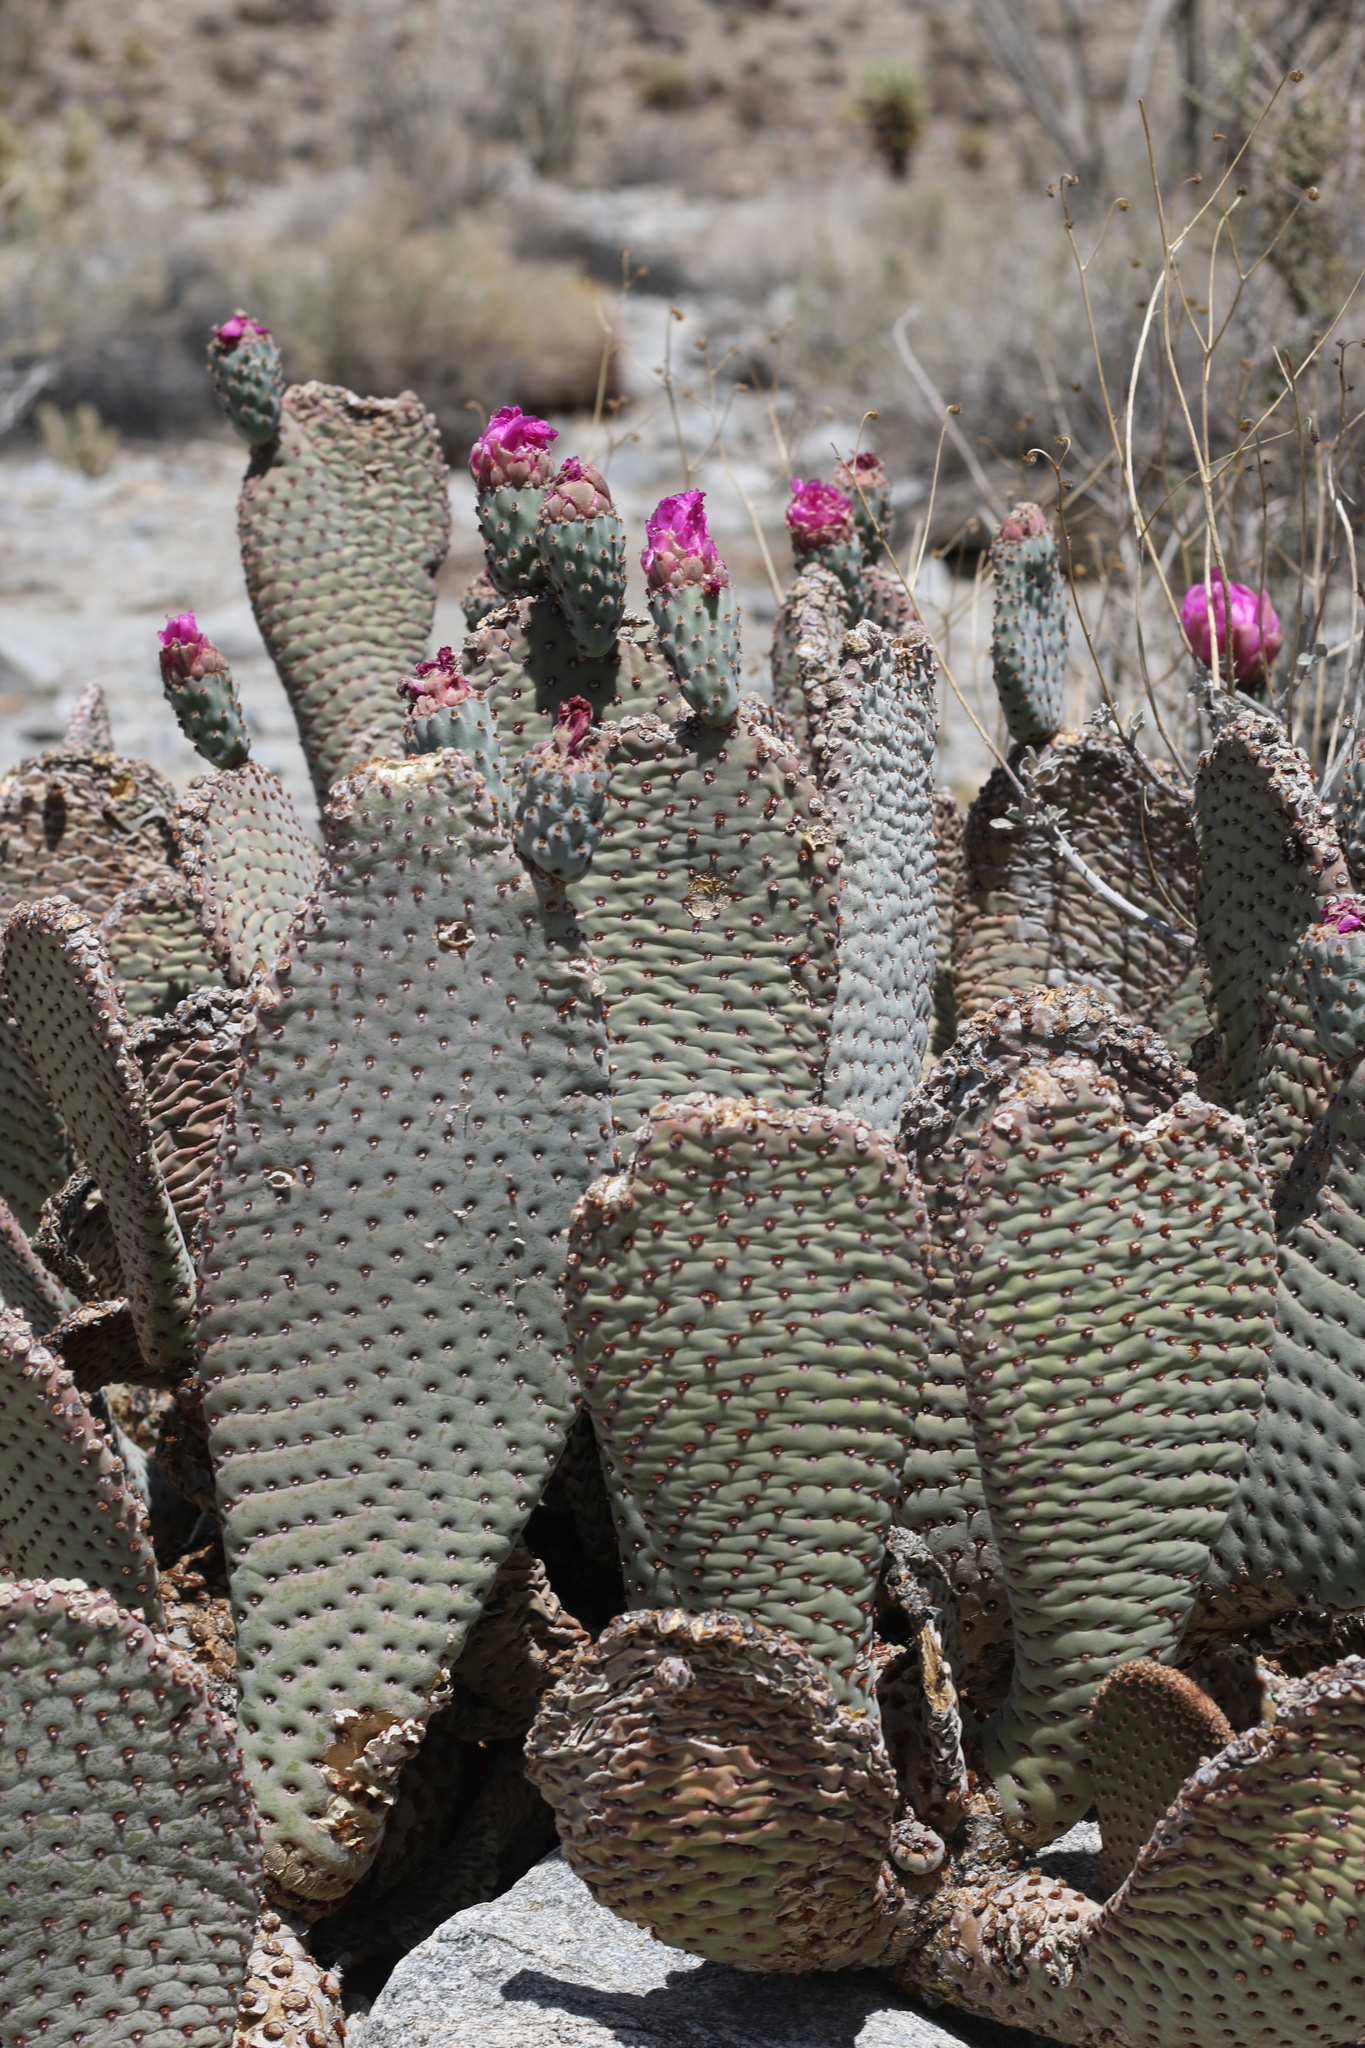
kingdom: Plantae
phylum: Tracheophyta
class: Magnoliopsida
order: Caryophyllales
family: Cactaceae
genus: Opuntia
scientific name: Opuntia basilaris
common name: Beavertail prickly-pear
